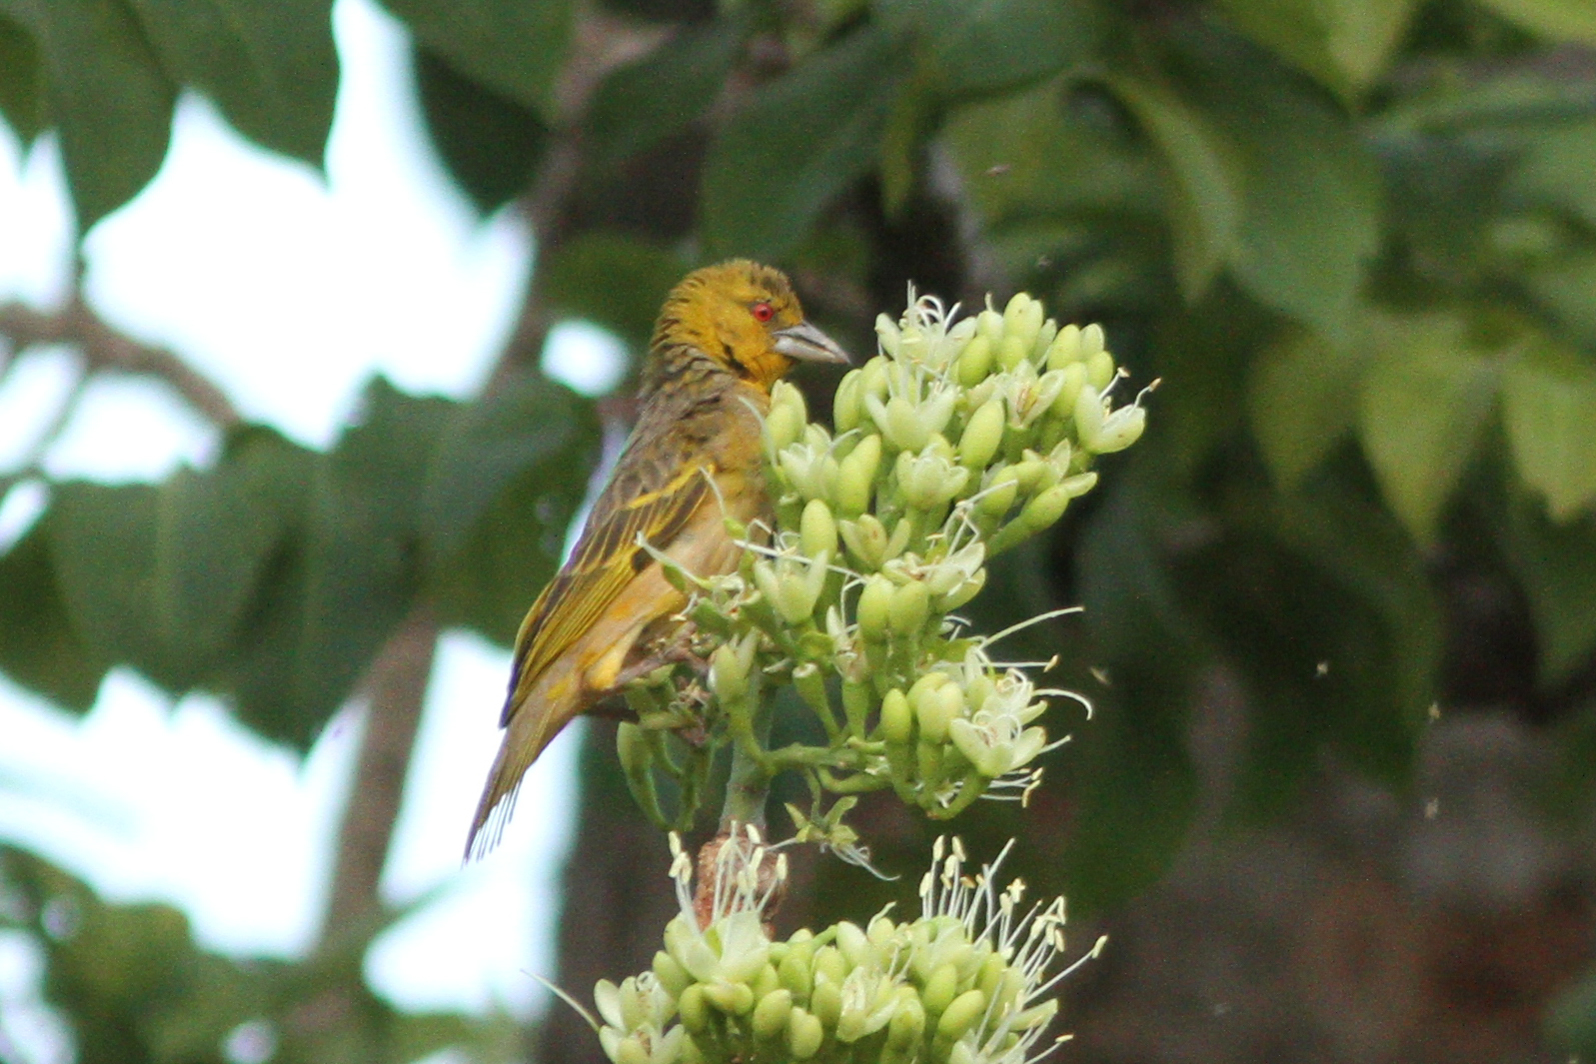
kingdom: Animalia
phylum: Chordata
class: Aves
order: Passeriformes
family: Ploceidae
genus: Ploceus
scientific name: Ploceus cucullatus
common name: Village weaver
